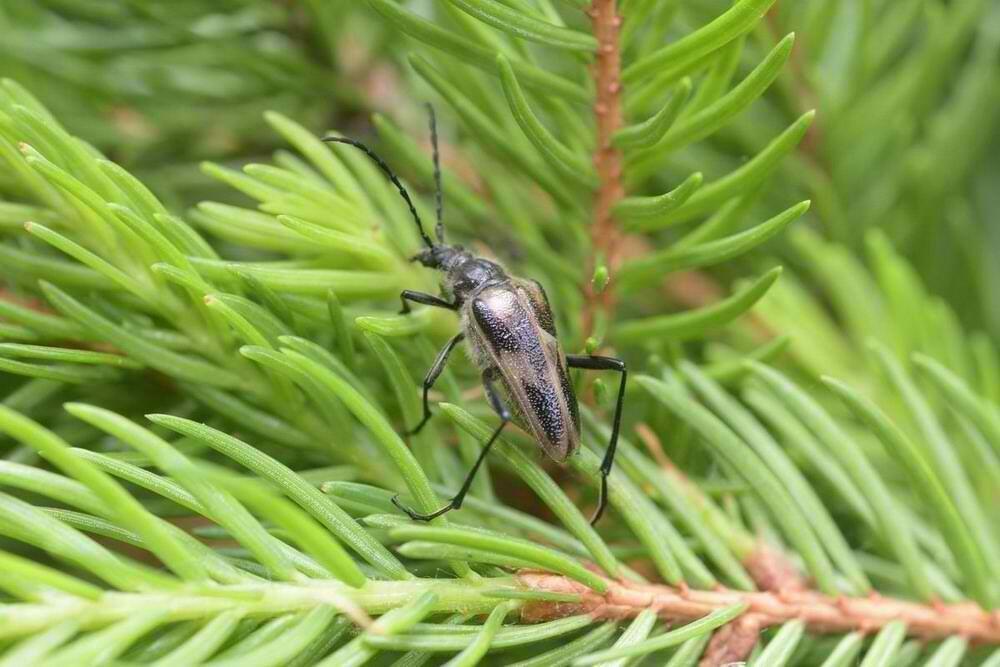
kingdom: Animalia
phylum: Arthropoda
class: Insecta
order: Coleoptera
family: Cerambycidae
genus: Pachyta
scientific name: Pachyta lamed
